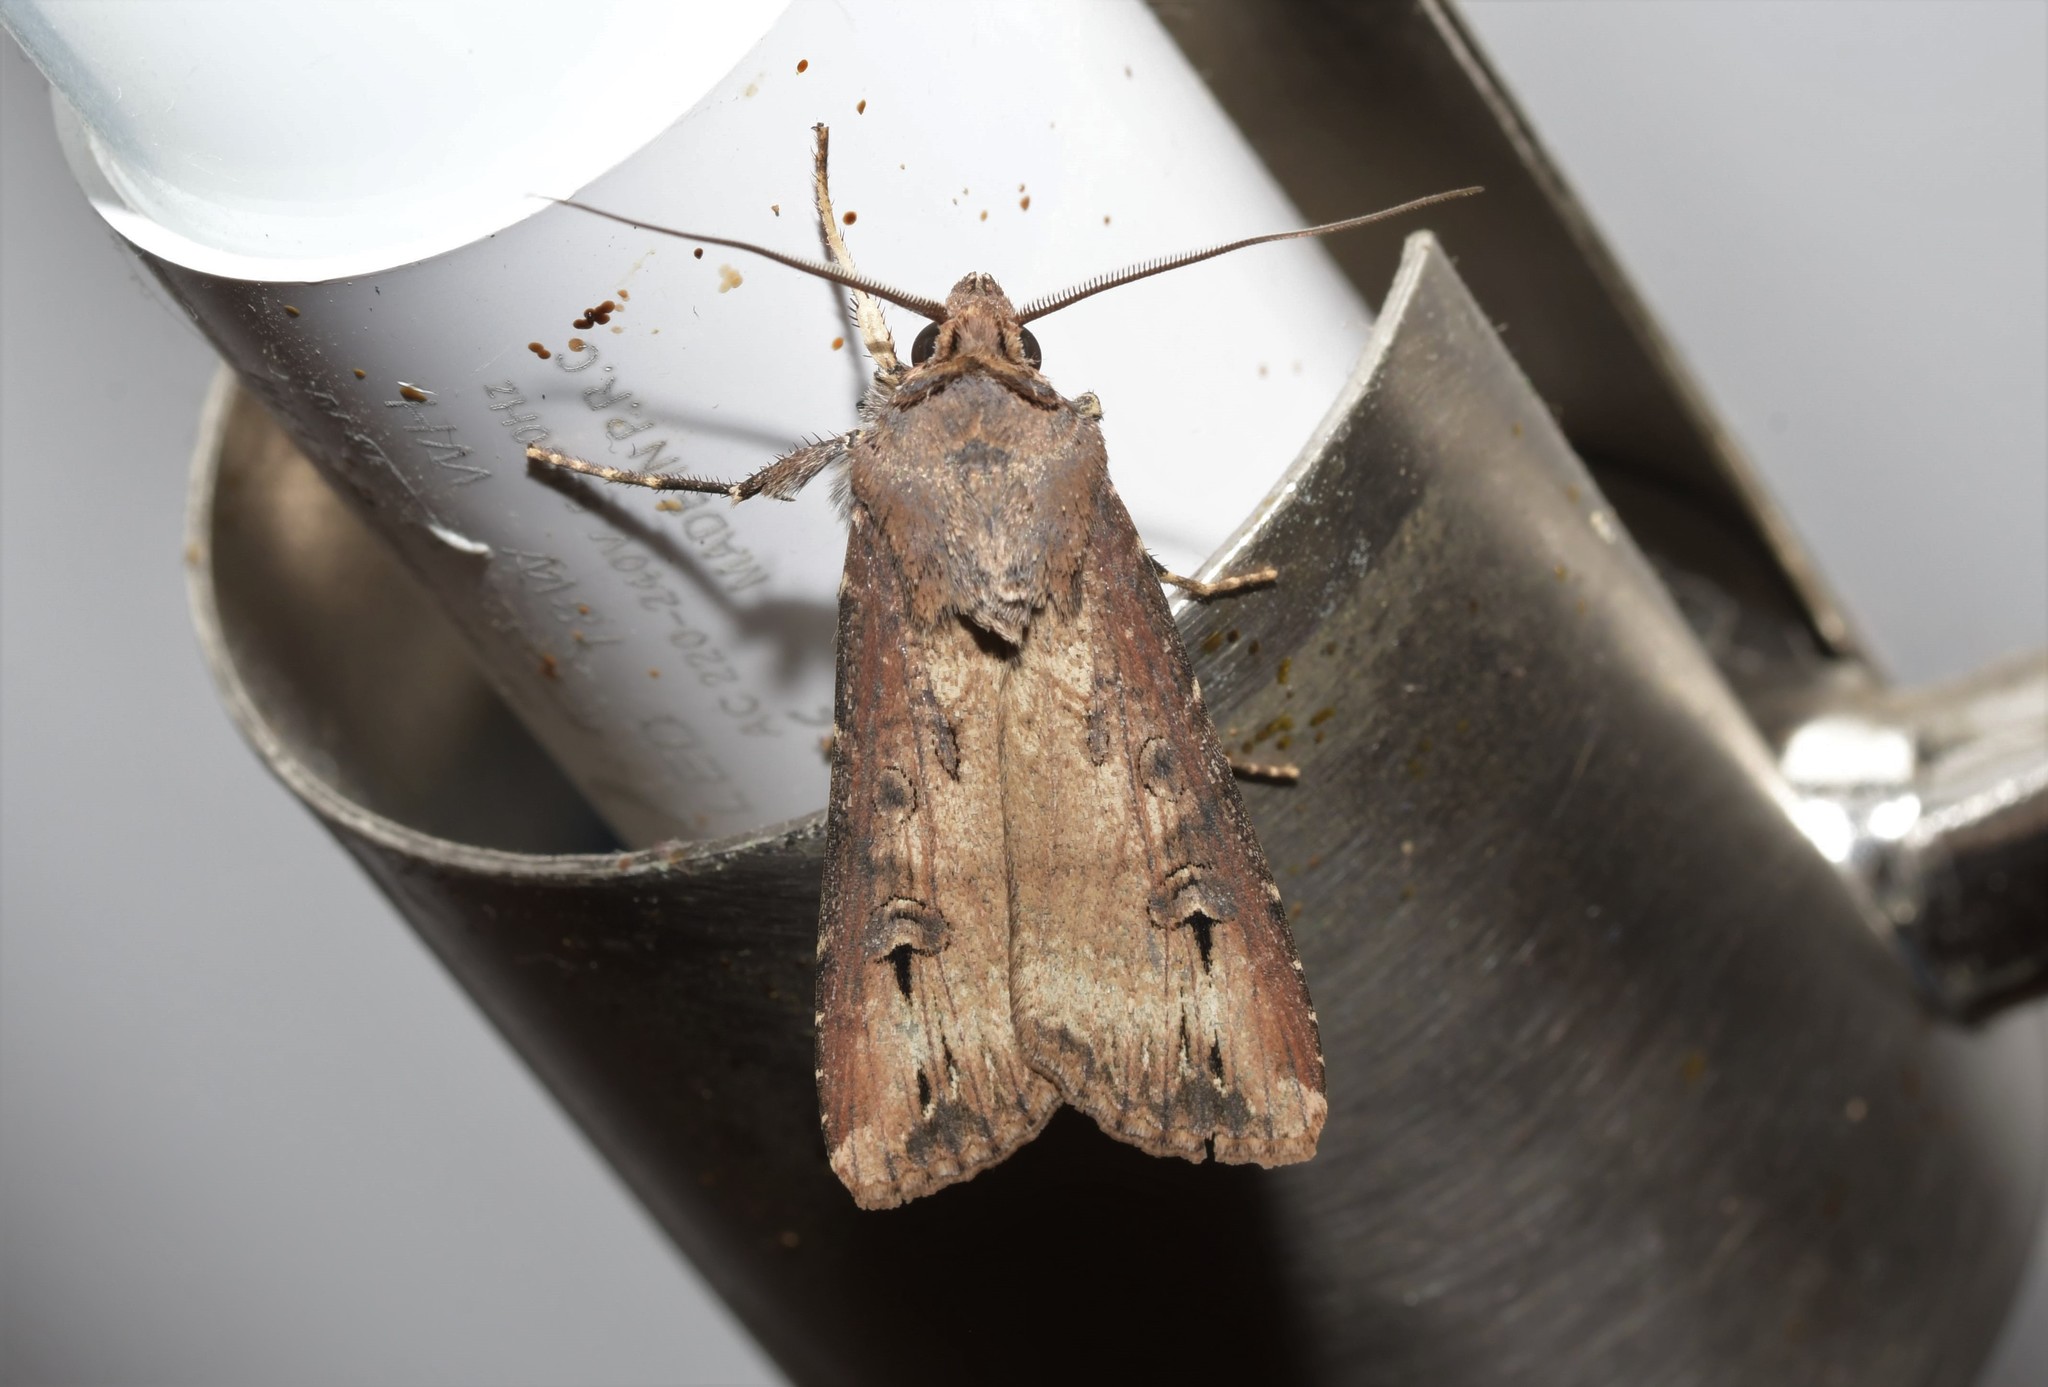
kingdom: Animalia
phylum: Arthropoda
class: Insecta
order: Lepidoptera
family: Noctuidae
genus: Agrotis
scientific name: Agrotis ipsilon
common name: Dark sword-grass
